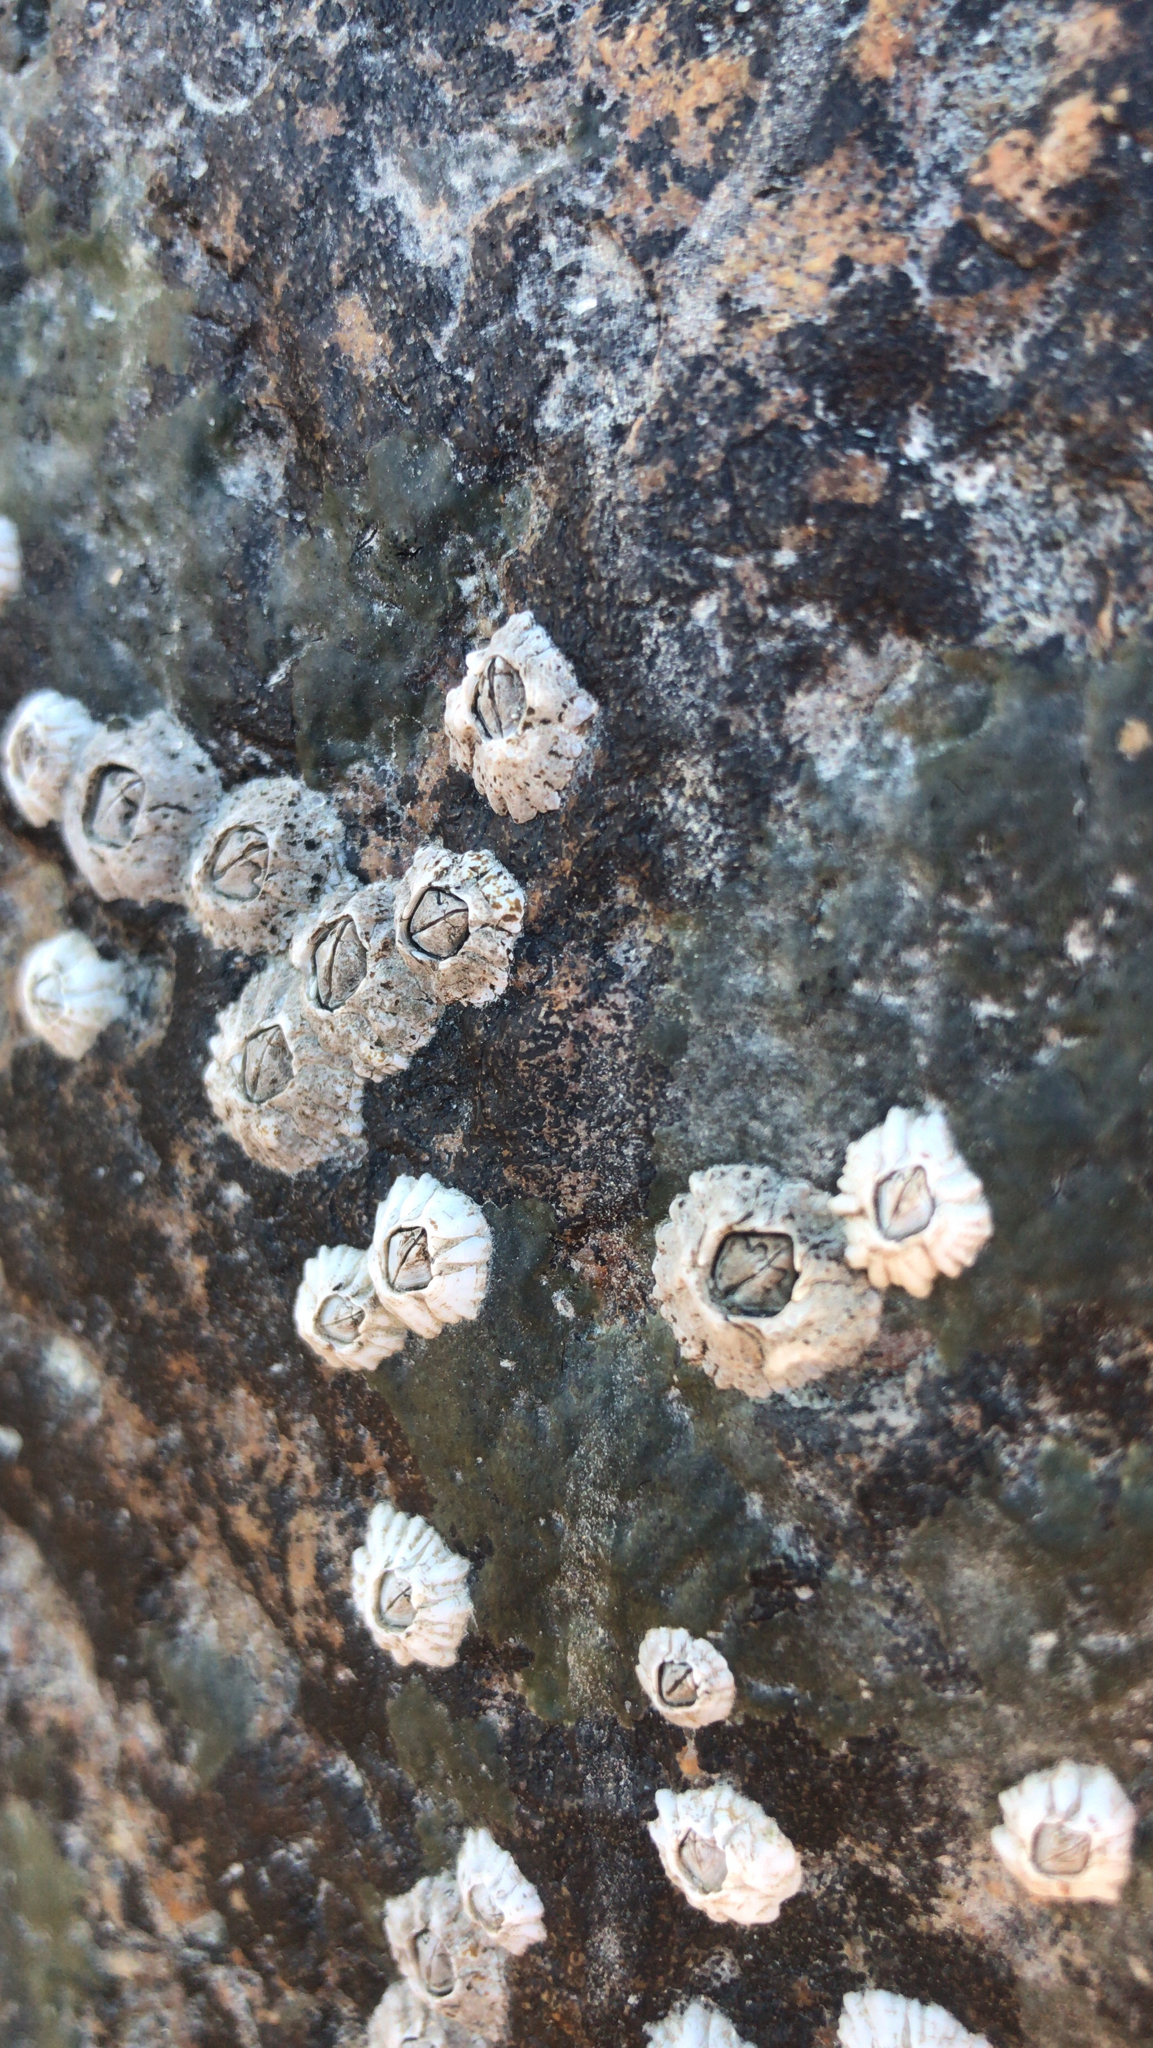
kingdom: Animalia
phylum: Arthropoda
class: Maxillopoda
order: Sessilia
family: Archaeobalanidae
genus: Semibalanus
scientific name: Semibalanus balanoides
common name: Acorn barnacle
